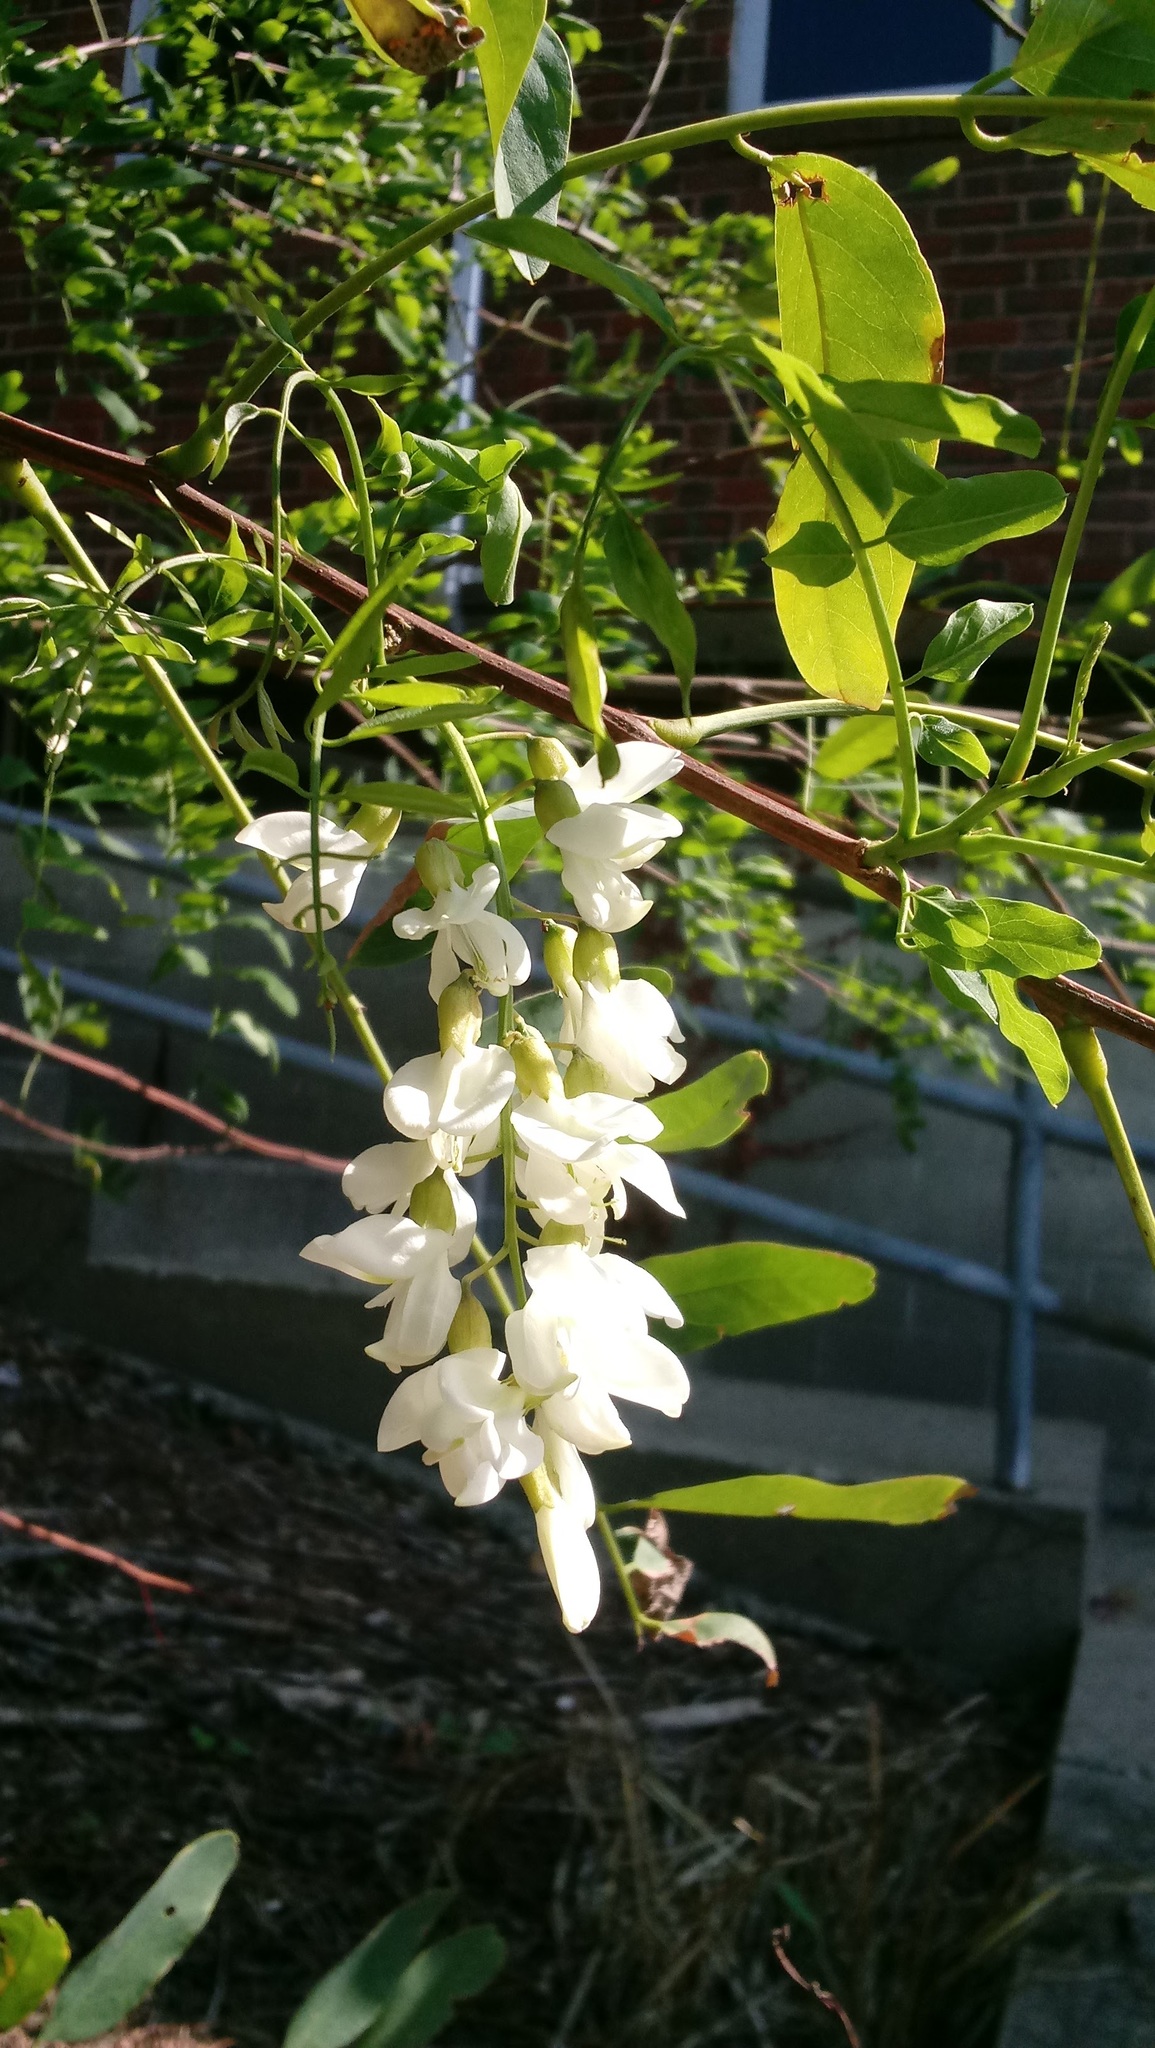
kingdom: Plantae
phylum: Tracheophyta
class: Magnoliopsida
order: Fabales
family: Fabaceae
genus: Robinia
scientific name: Robinia pseudoacacia
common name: Black locust
